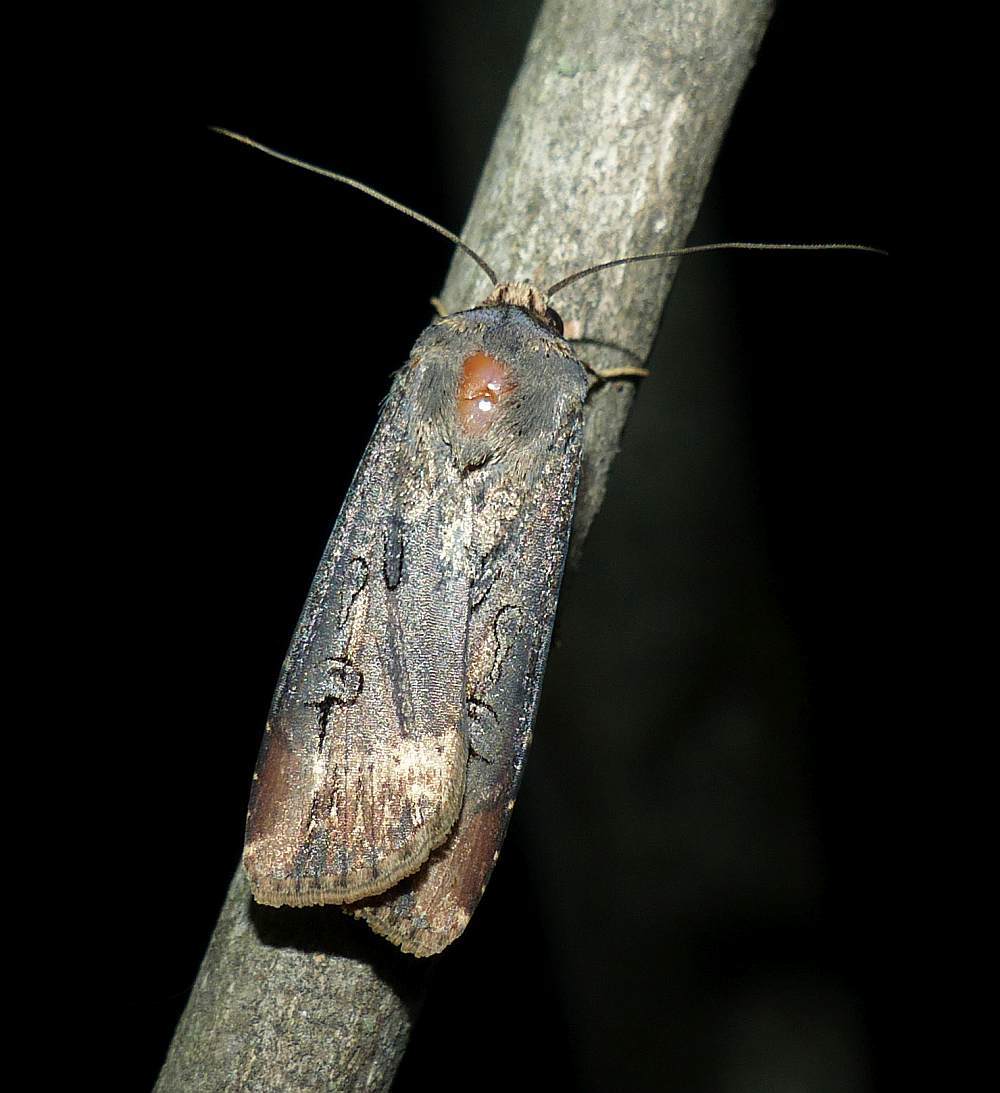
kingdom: Animalia
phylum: Arthropoda
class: Insecta
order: Lepidoptera
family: Noctuidae
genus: Agrotis
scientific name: Agrotis ipsilon
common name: Dark sword-grass
